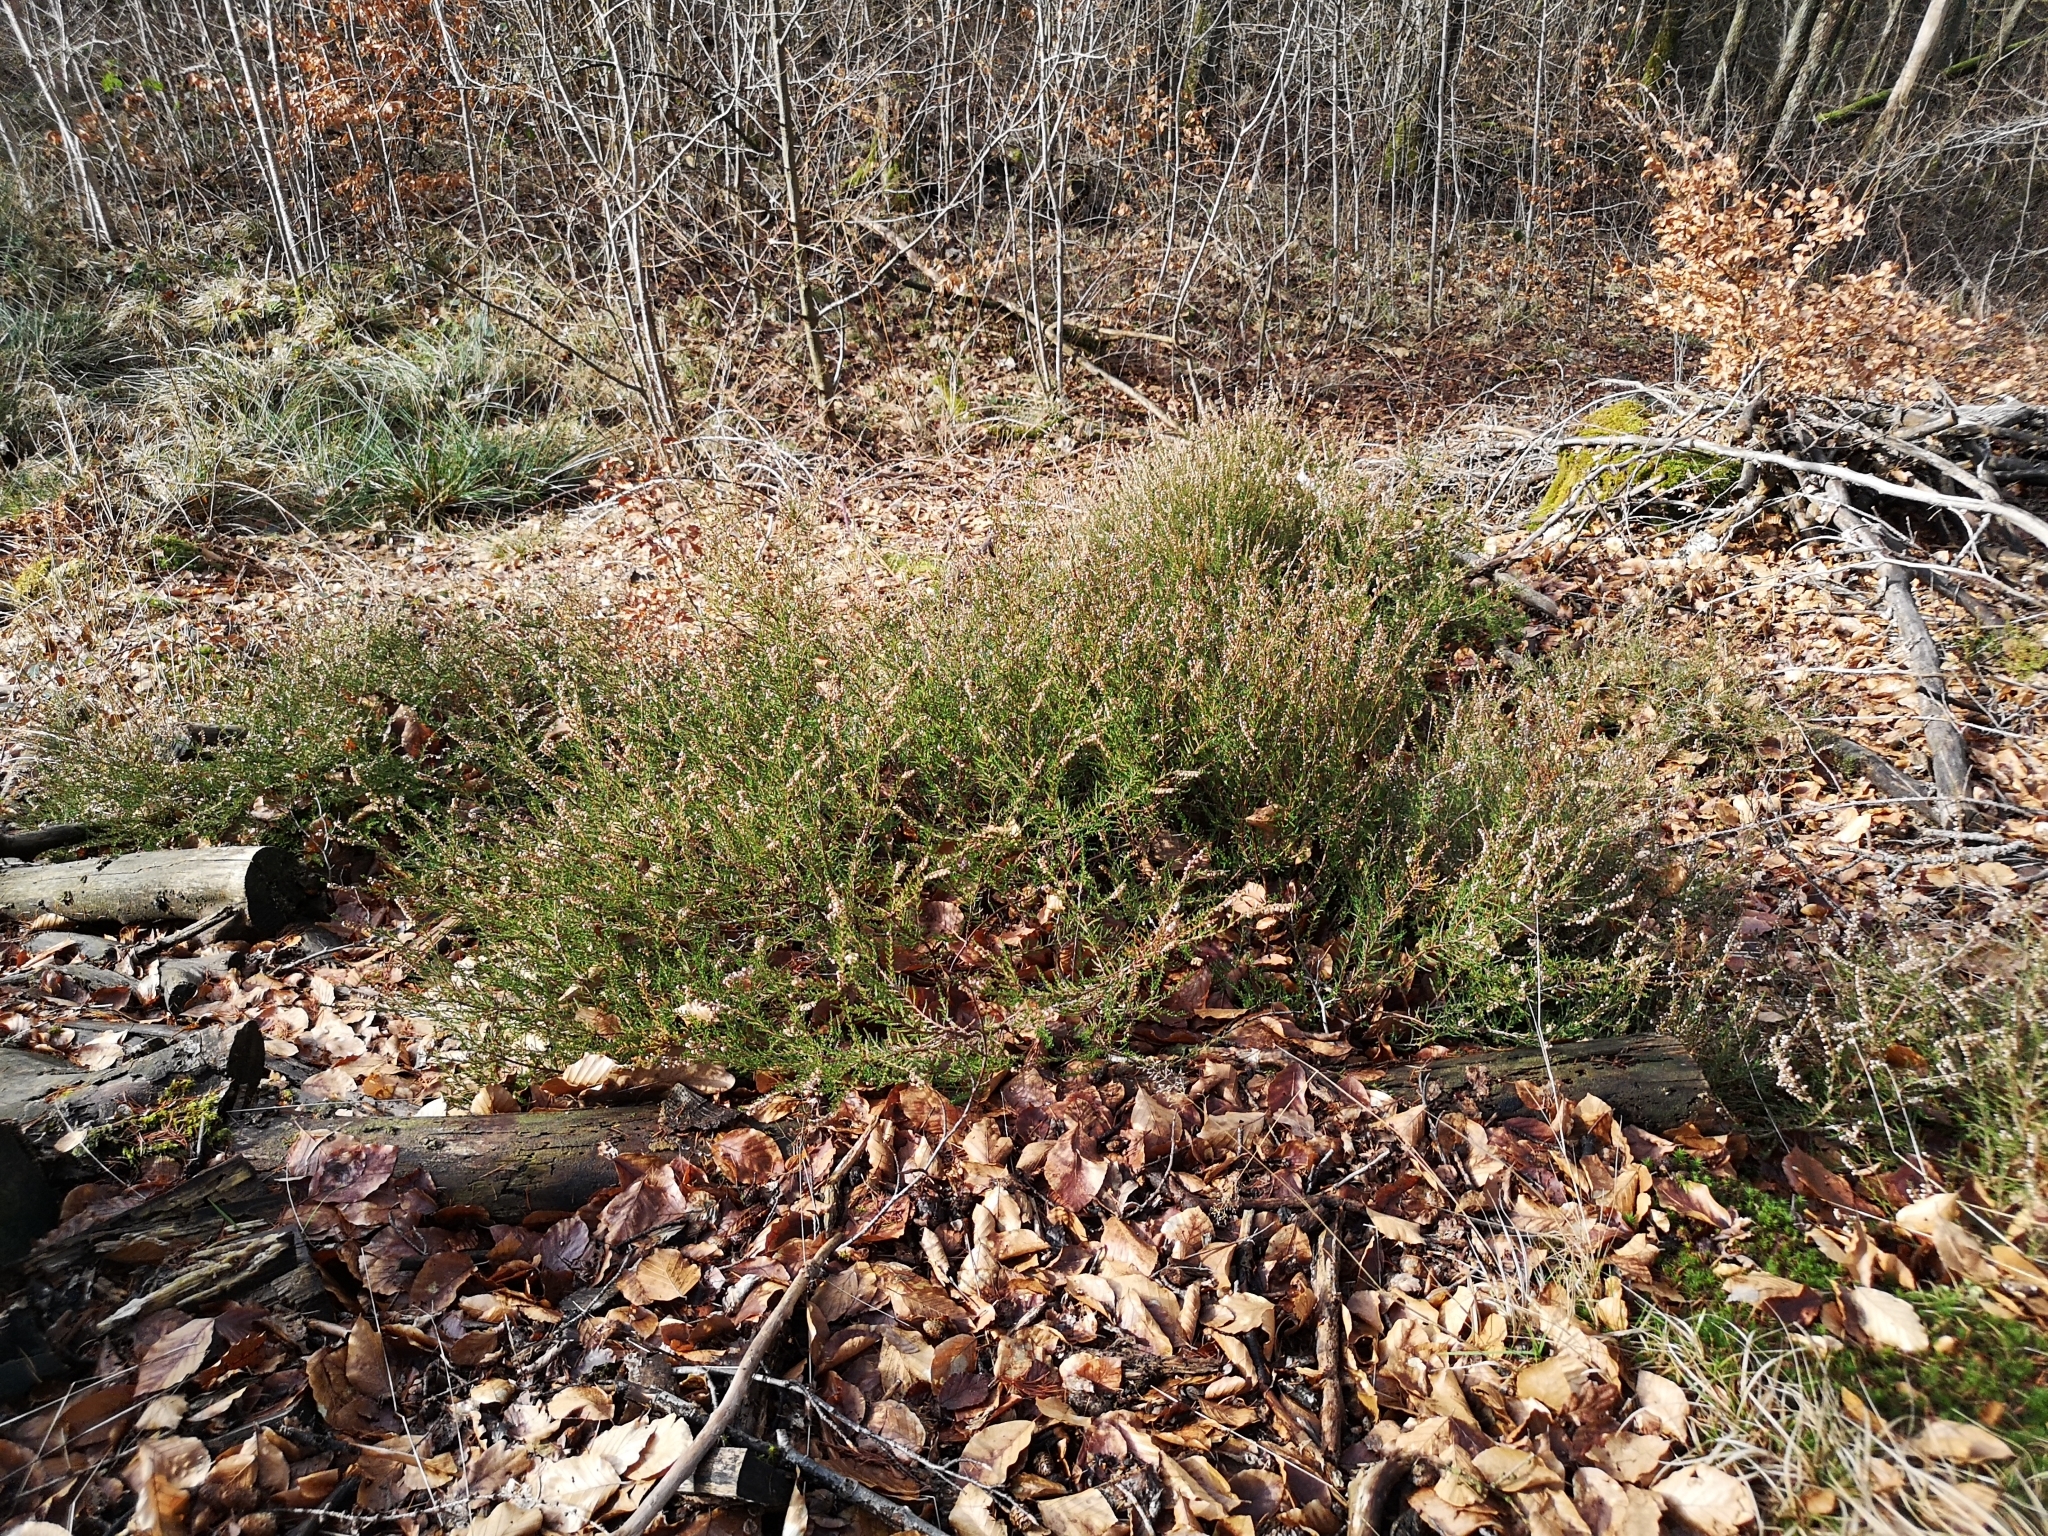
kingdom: Plantae
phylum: Tracheophyta
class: Magnoliopsida
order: Ericales
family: Ericaceae
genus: Calluna
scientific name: Calluna vulgaris
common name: Heather
